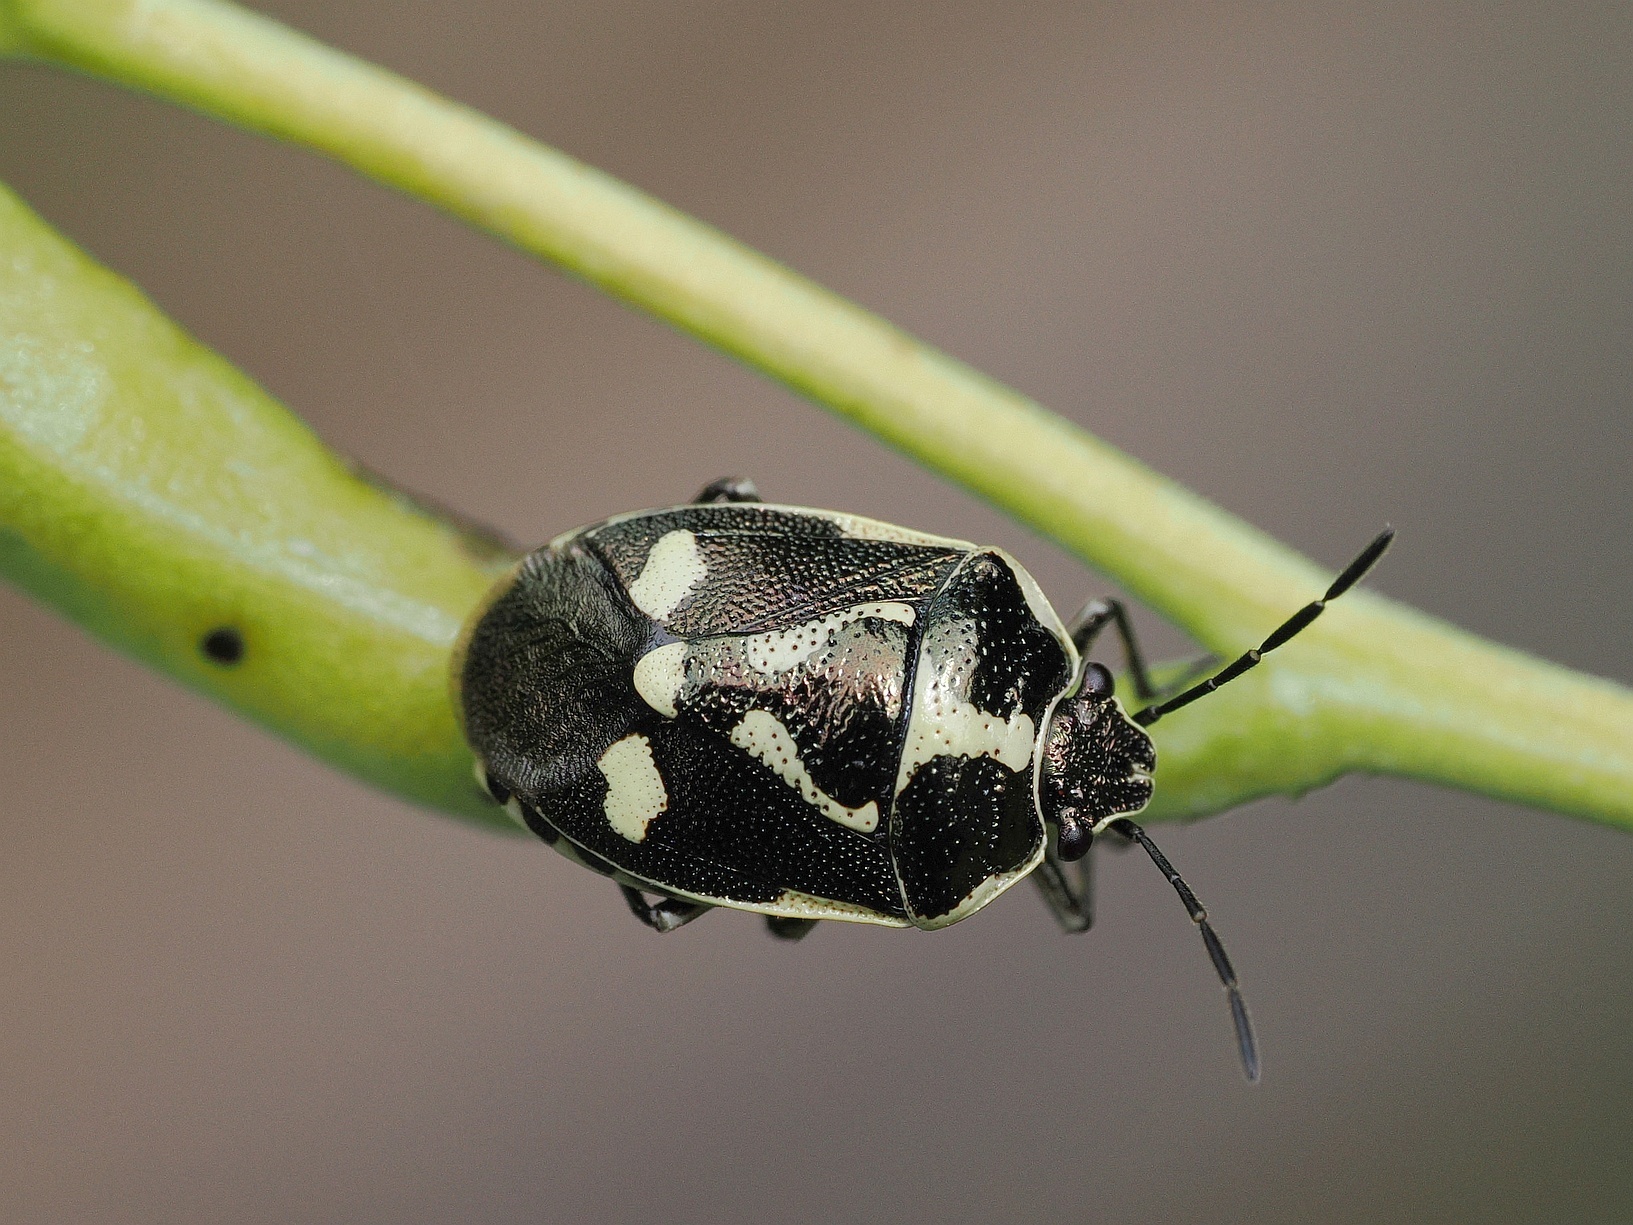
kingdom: Animalia
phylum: Arthropoda
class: Insecta
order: Hemiptera
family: Pentatomidae
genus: Eurydema
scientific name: Eurydema oleracea
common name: Cabbage bug
